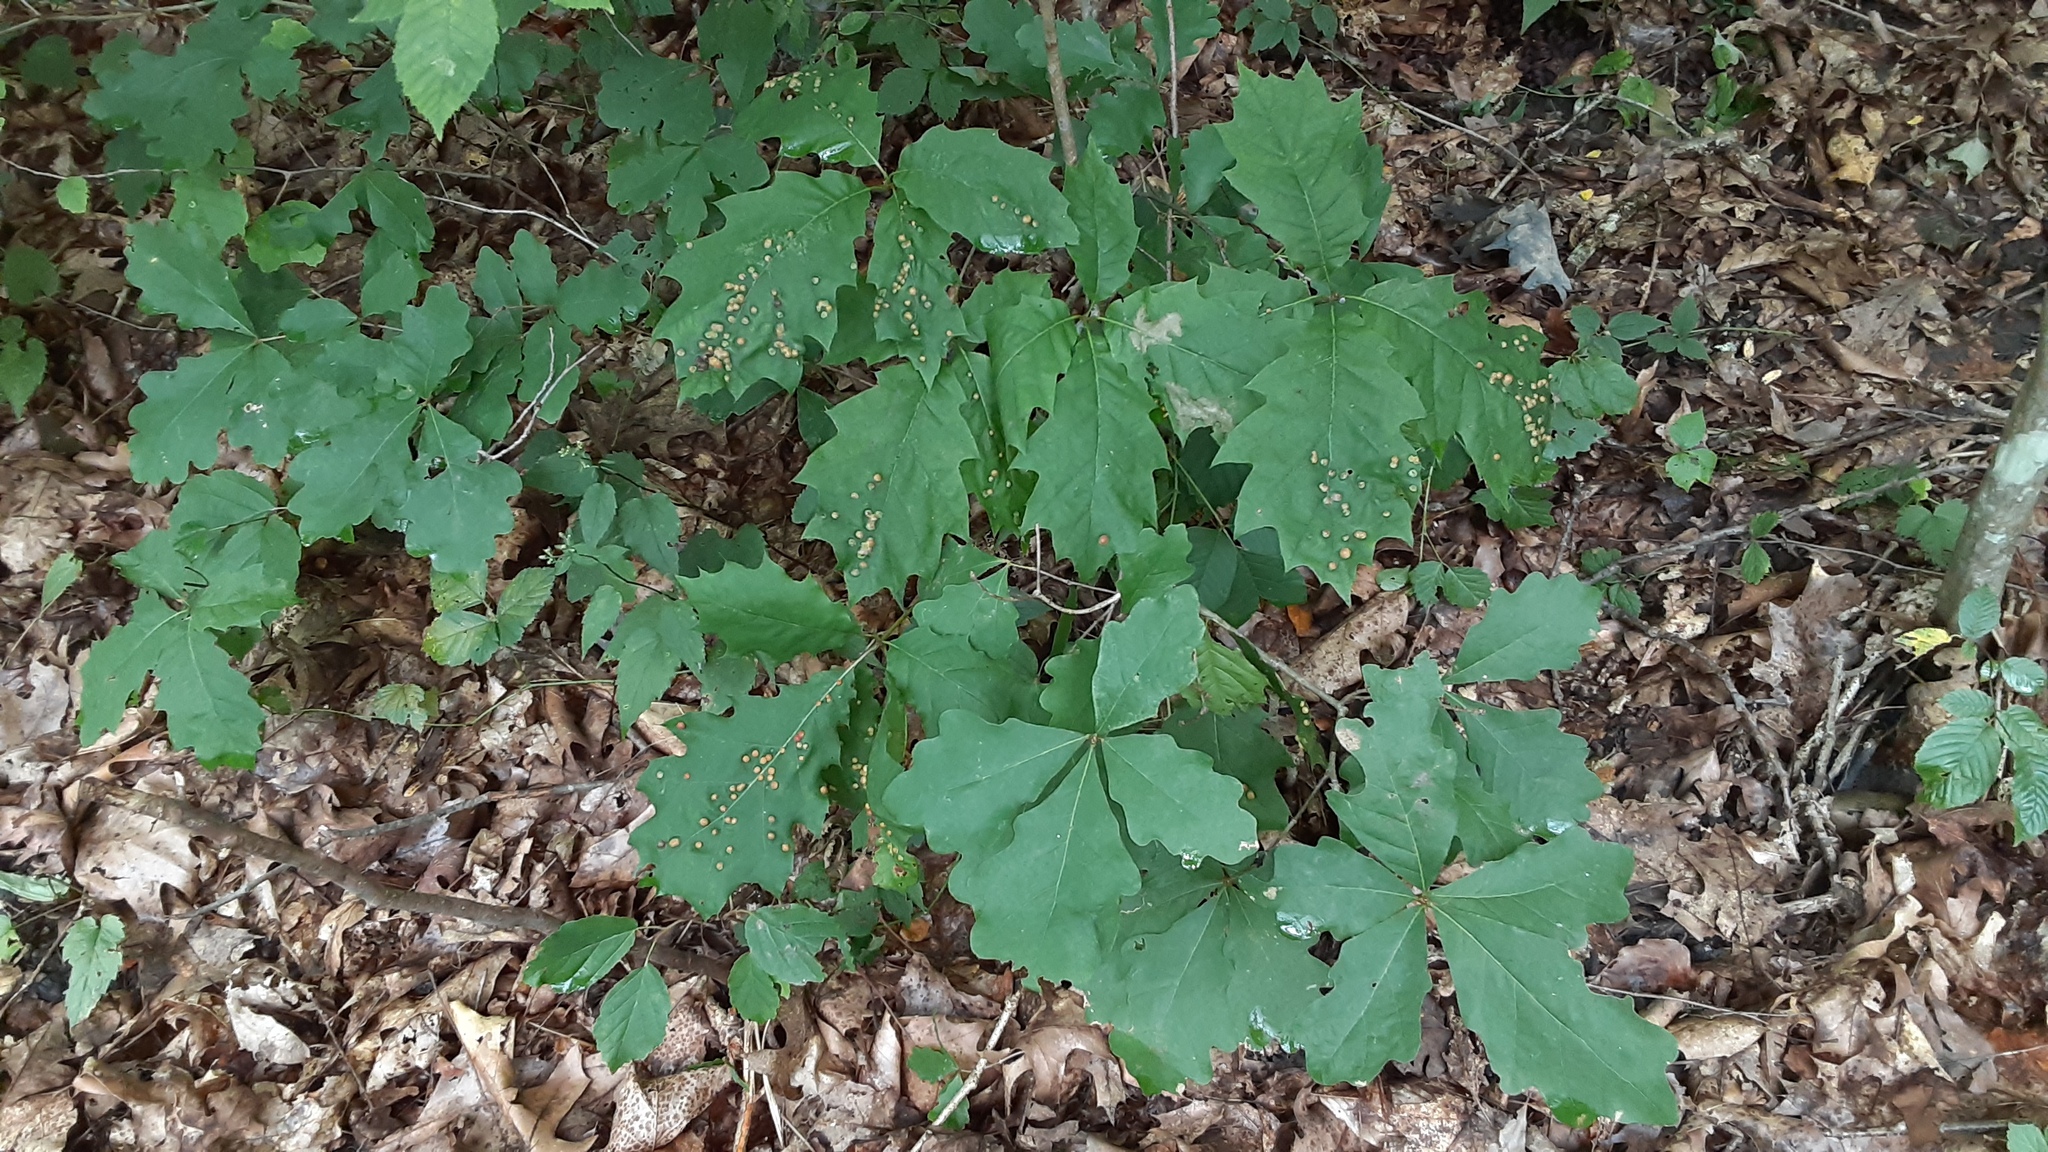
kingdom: Animalia
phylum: Arthropoda
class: Insecta
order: Diptera
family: Cecidomyiidae
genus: Polystepha
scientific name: Polystepha pilulae
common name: Oak leaf gall midge
